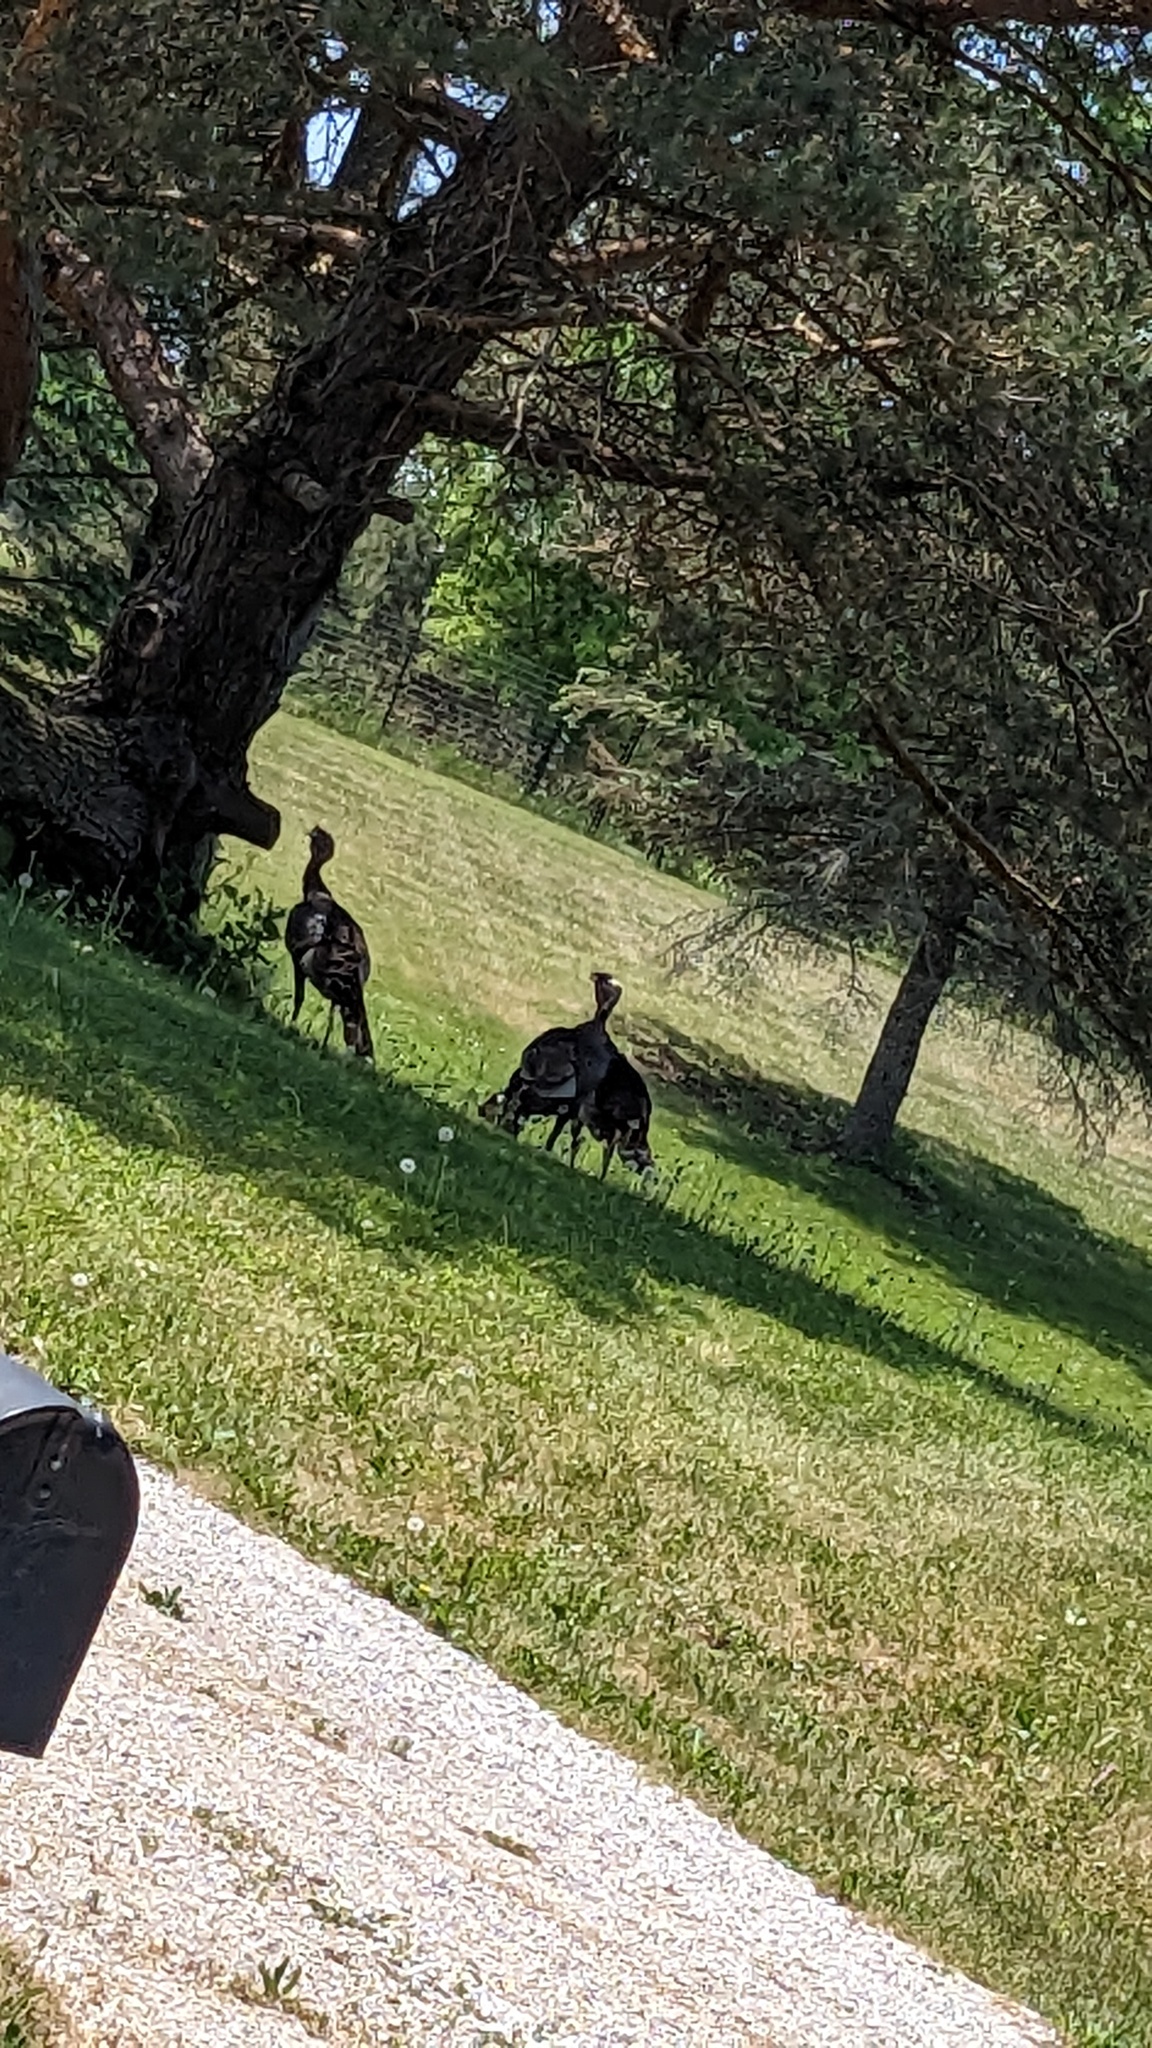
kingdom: Animalia
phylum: Chordata
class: Aves
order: Galliformes
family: Phasianidae
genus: Meleagris
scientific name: Meleagris gallopavo
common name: Wild turkey
